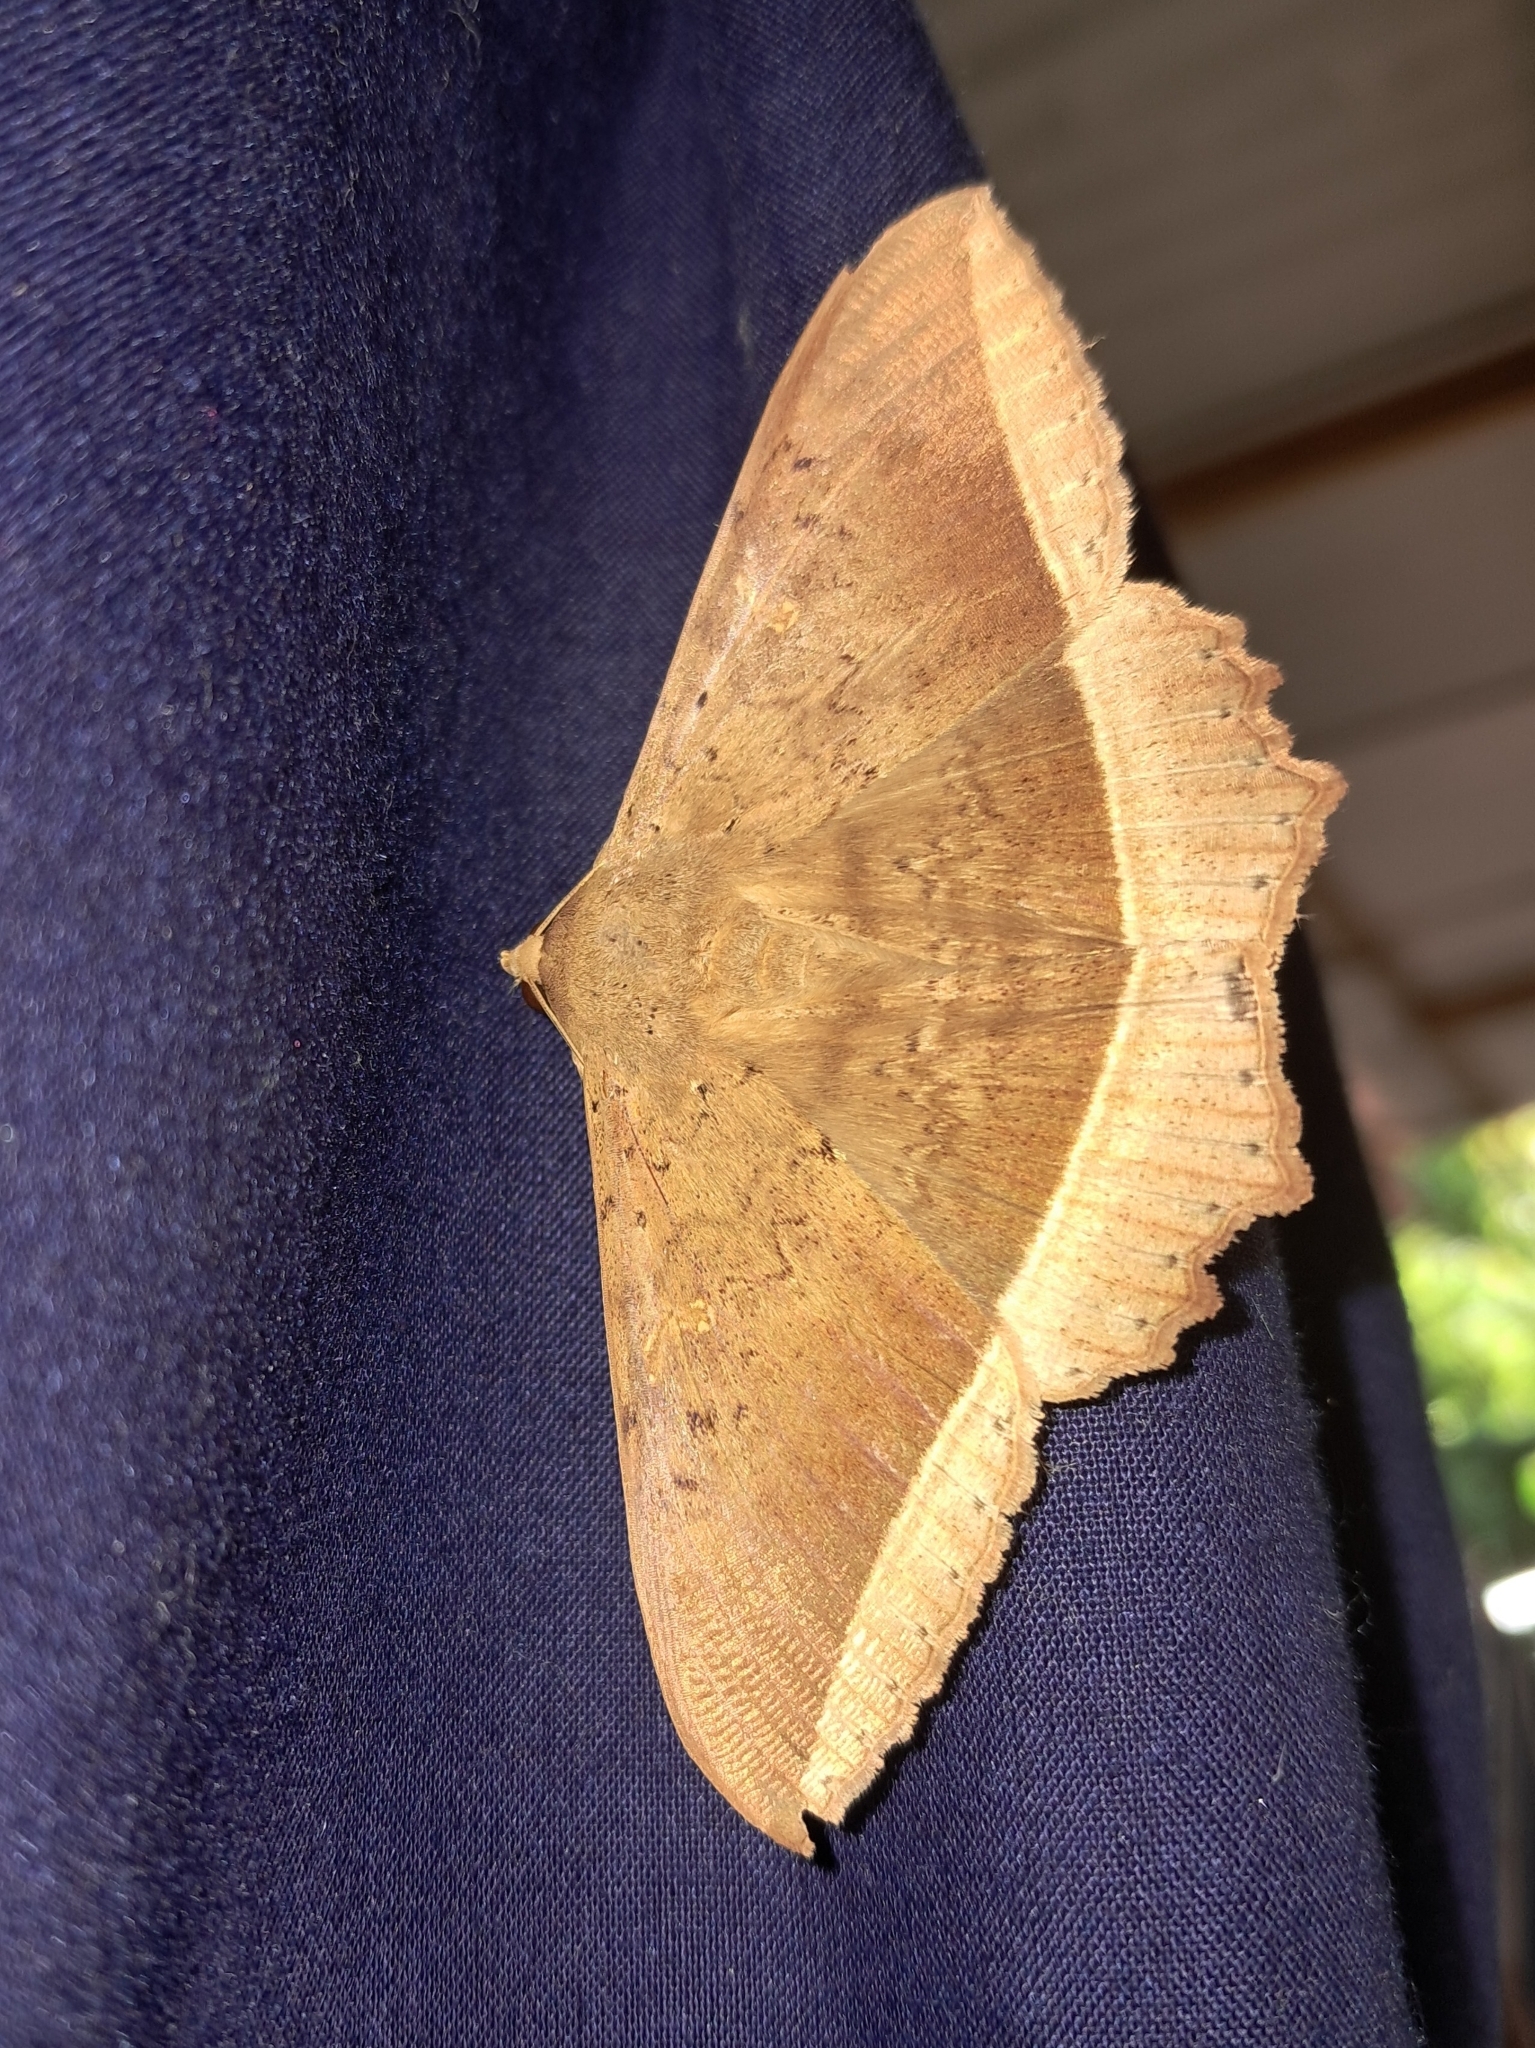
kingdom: Animalia
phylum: Arthropoda
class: Insecta
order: Lepidoptera
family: Erebidae
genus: Hulodes
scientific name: Hulodes caranea
